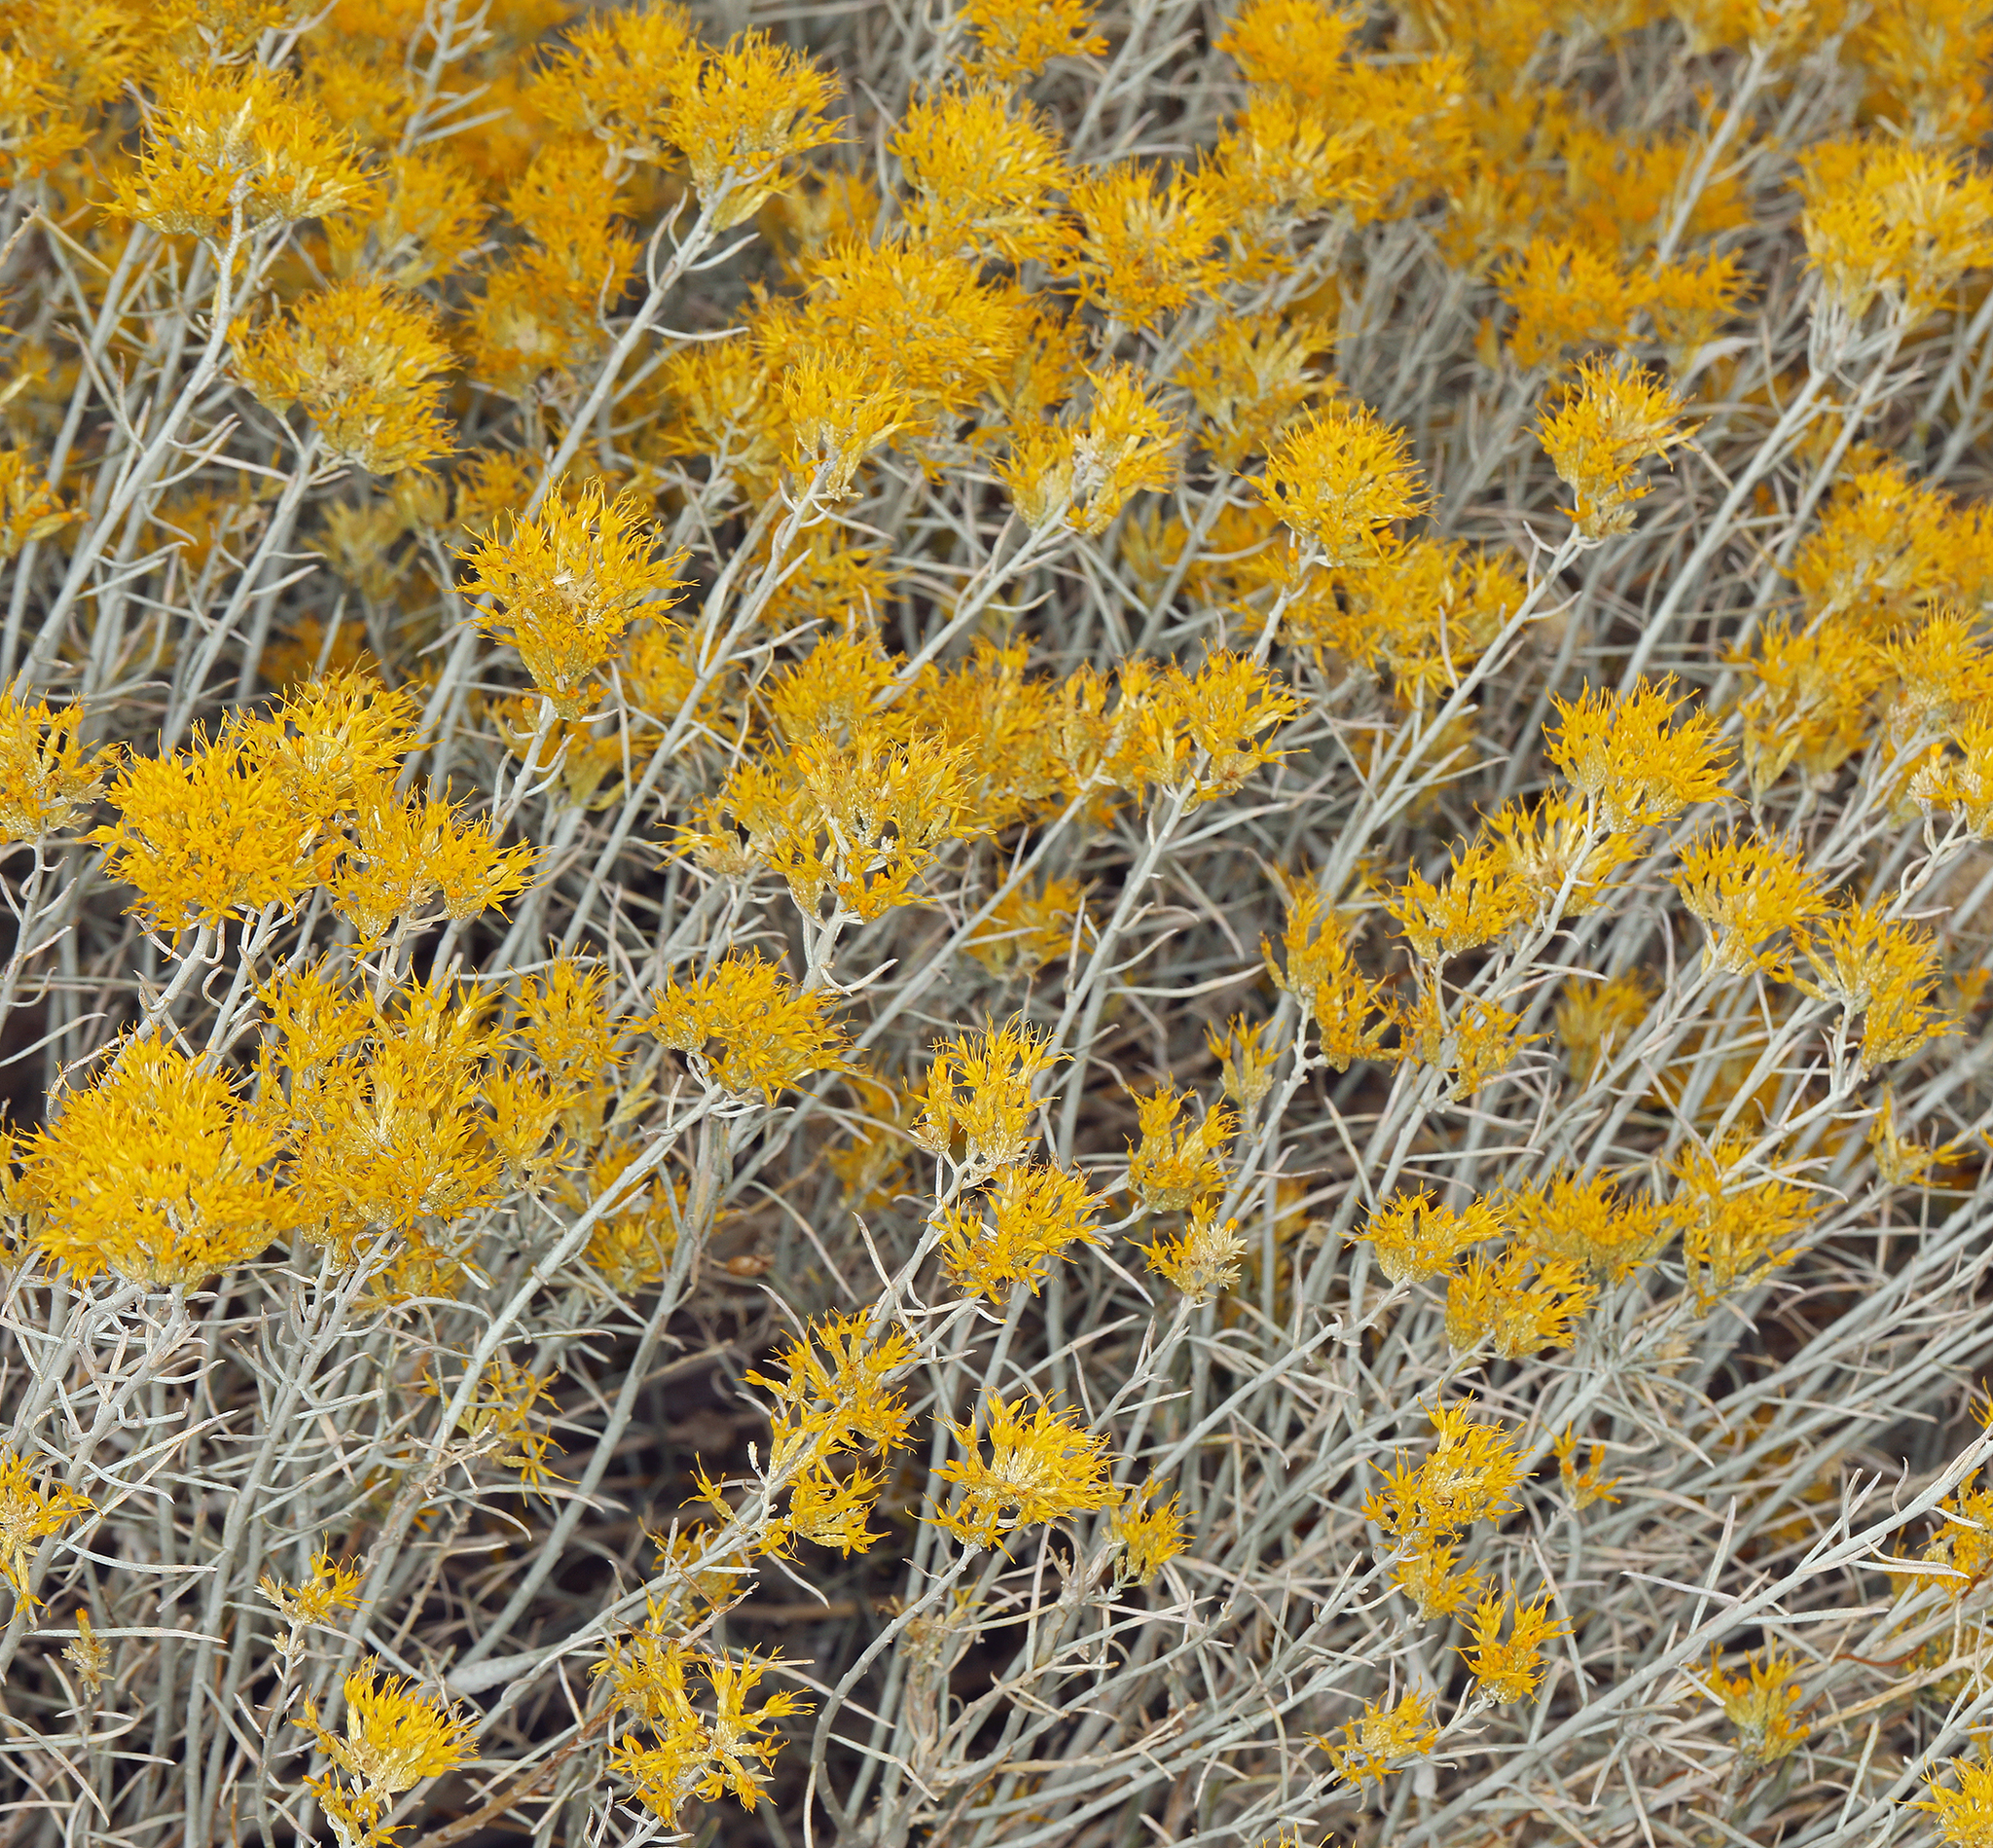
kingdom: Plantae
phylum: Tracheophyta
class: Magnoliopsida
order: Asterales
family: Asteraceae
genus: Ericameria
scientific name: Ericameria nauseosa
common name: Rubber rabbitbrush
